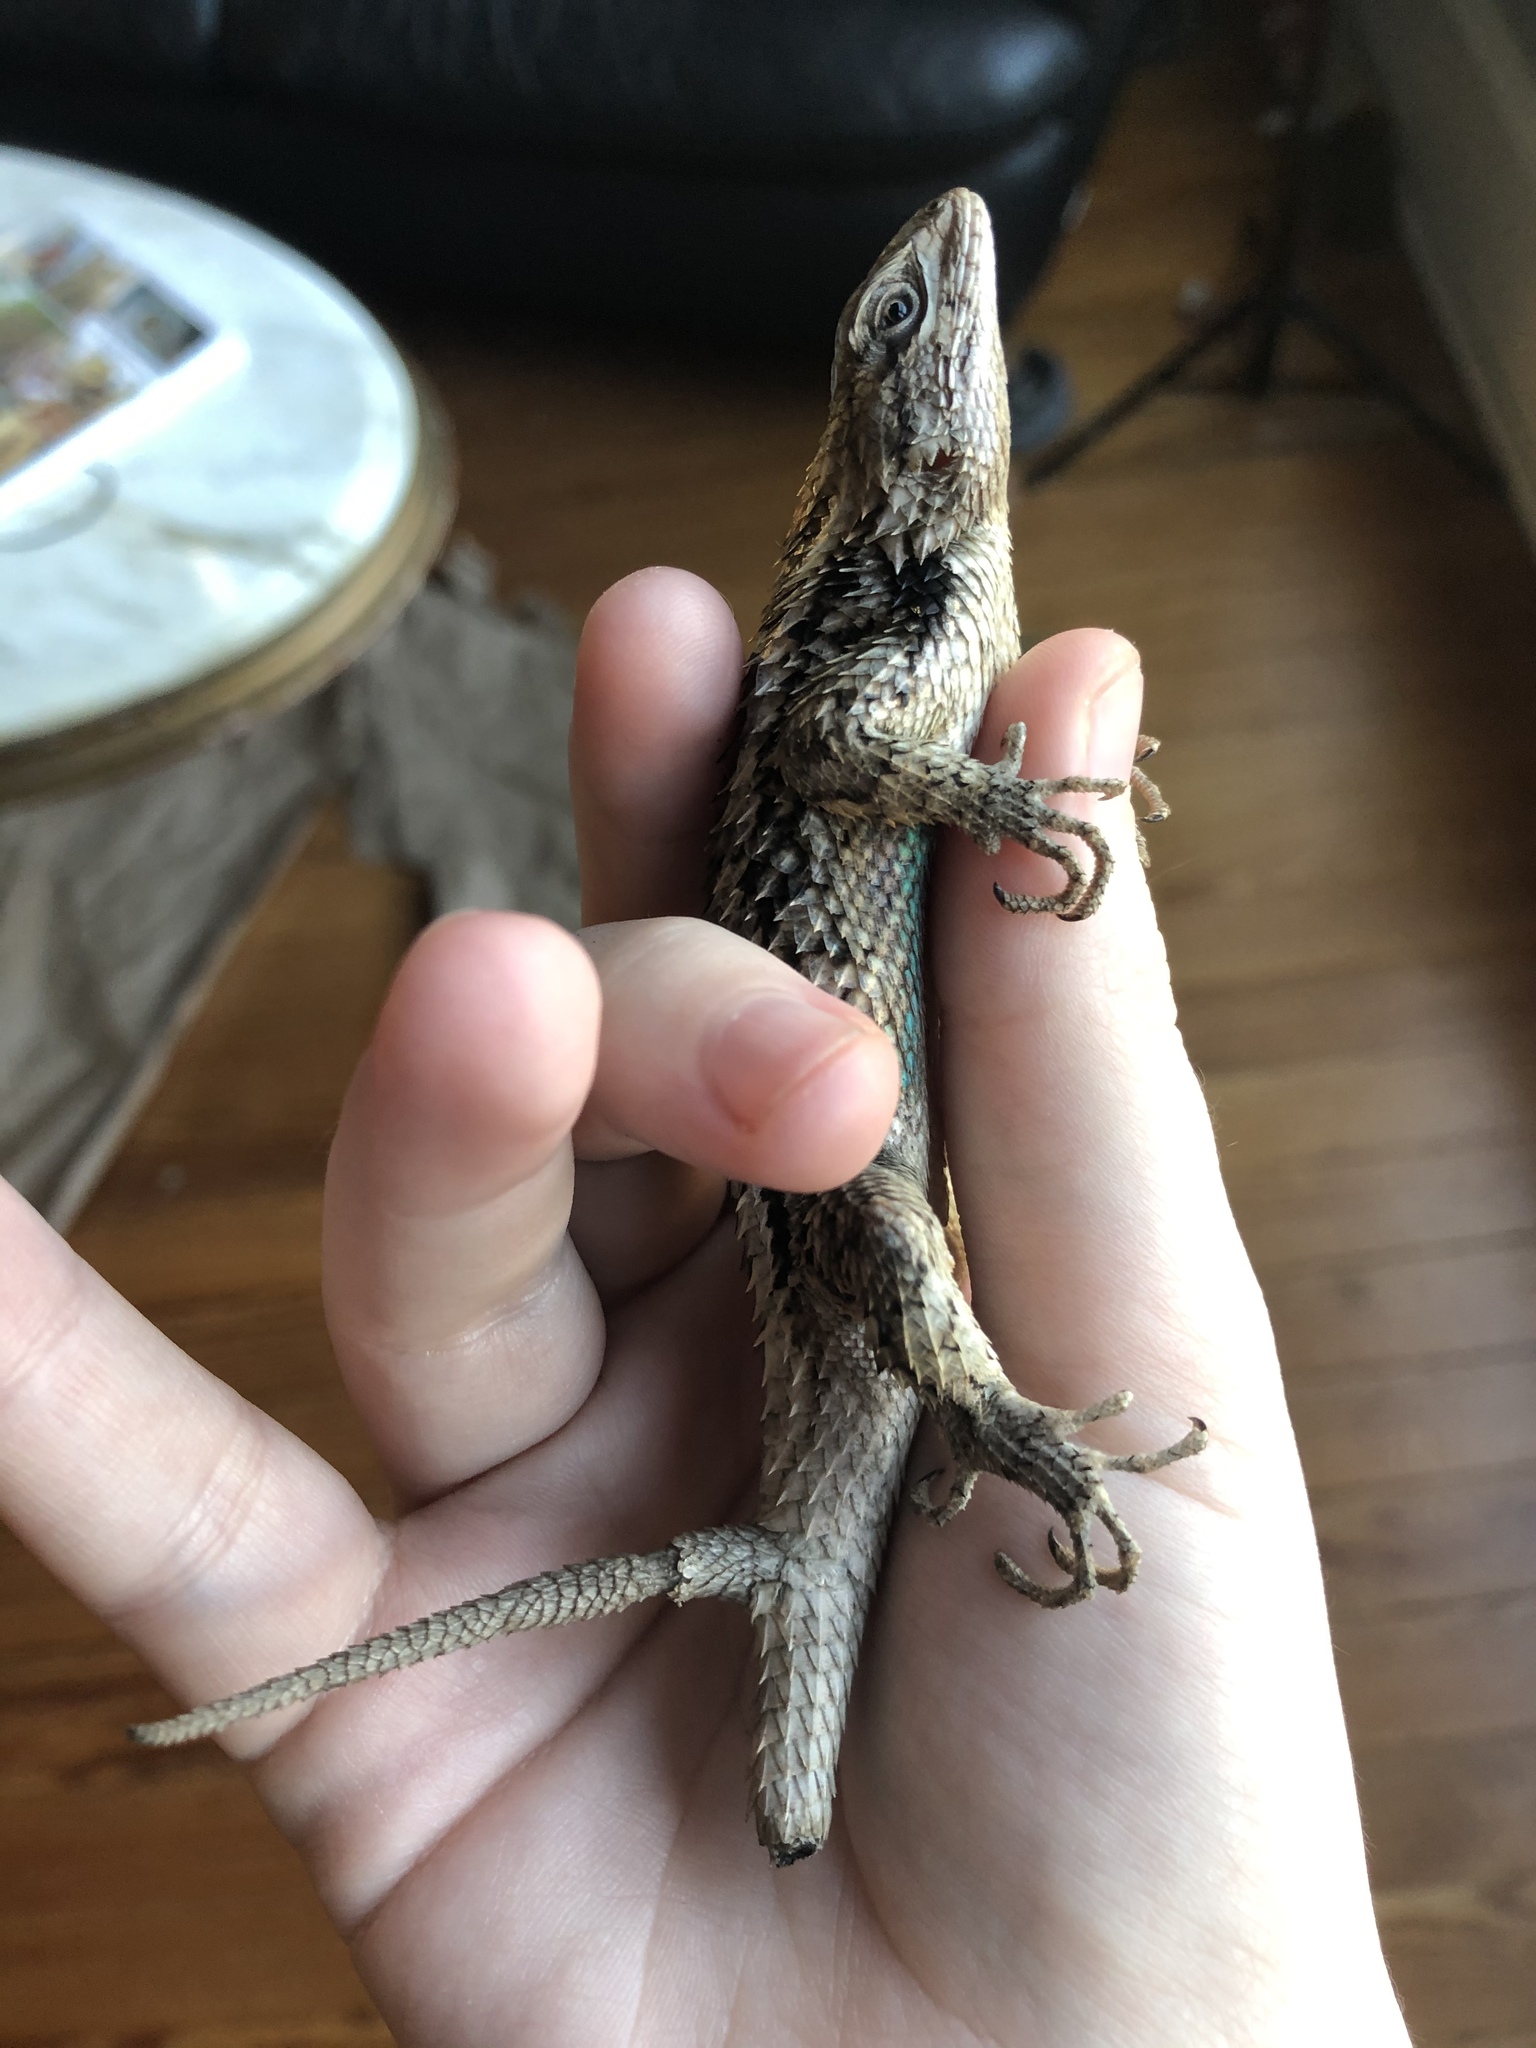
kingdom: Animalia
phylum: Chordata
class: Squamata
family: Phrynosomatidae
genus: Sceloporus
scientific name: Sceloporus olivaceus
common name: Texas spiny lizard
